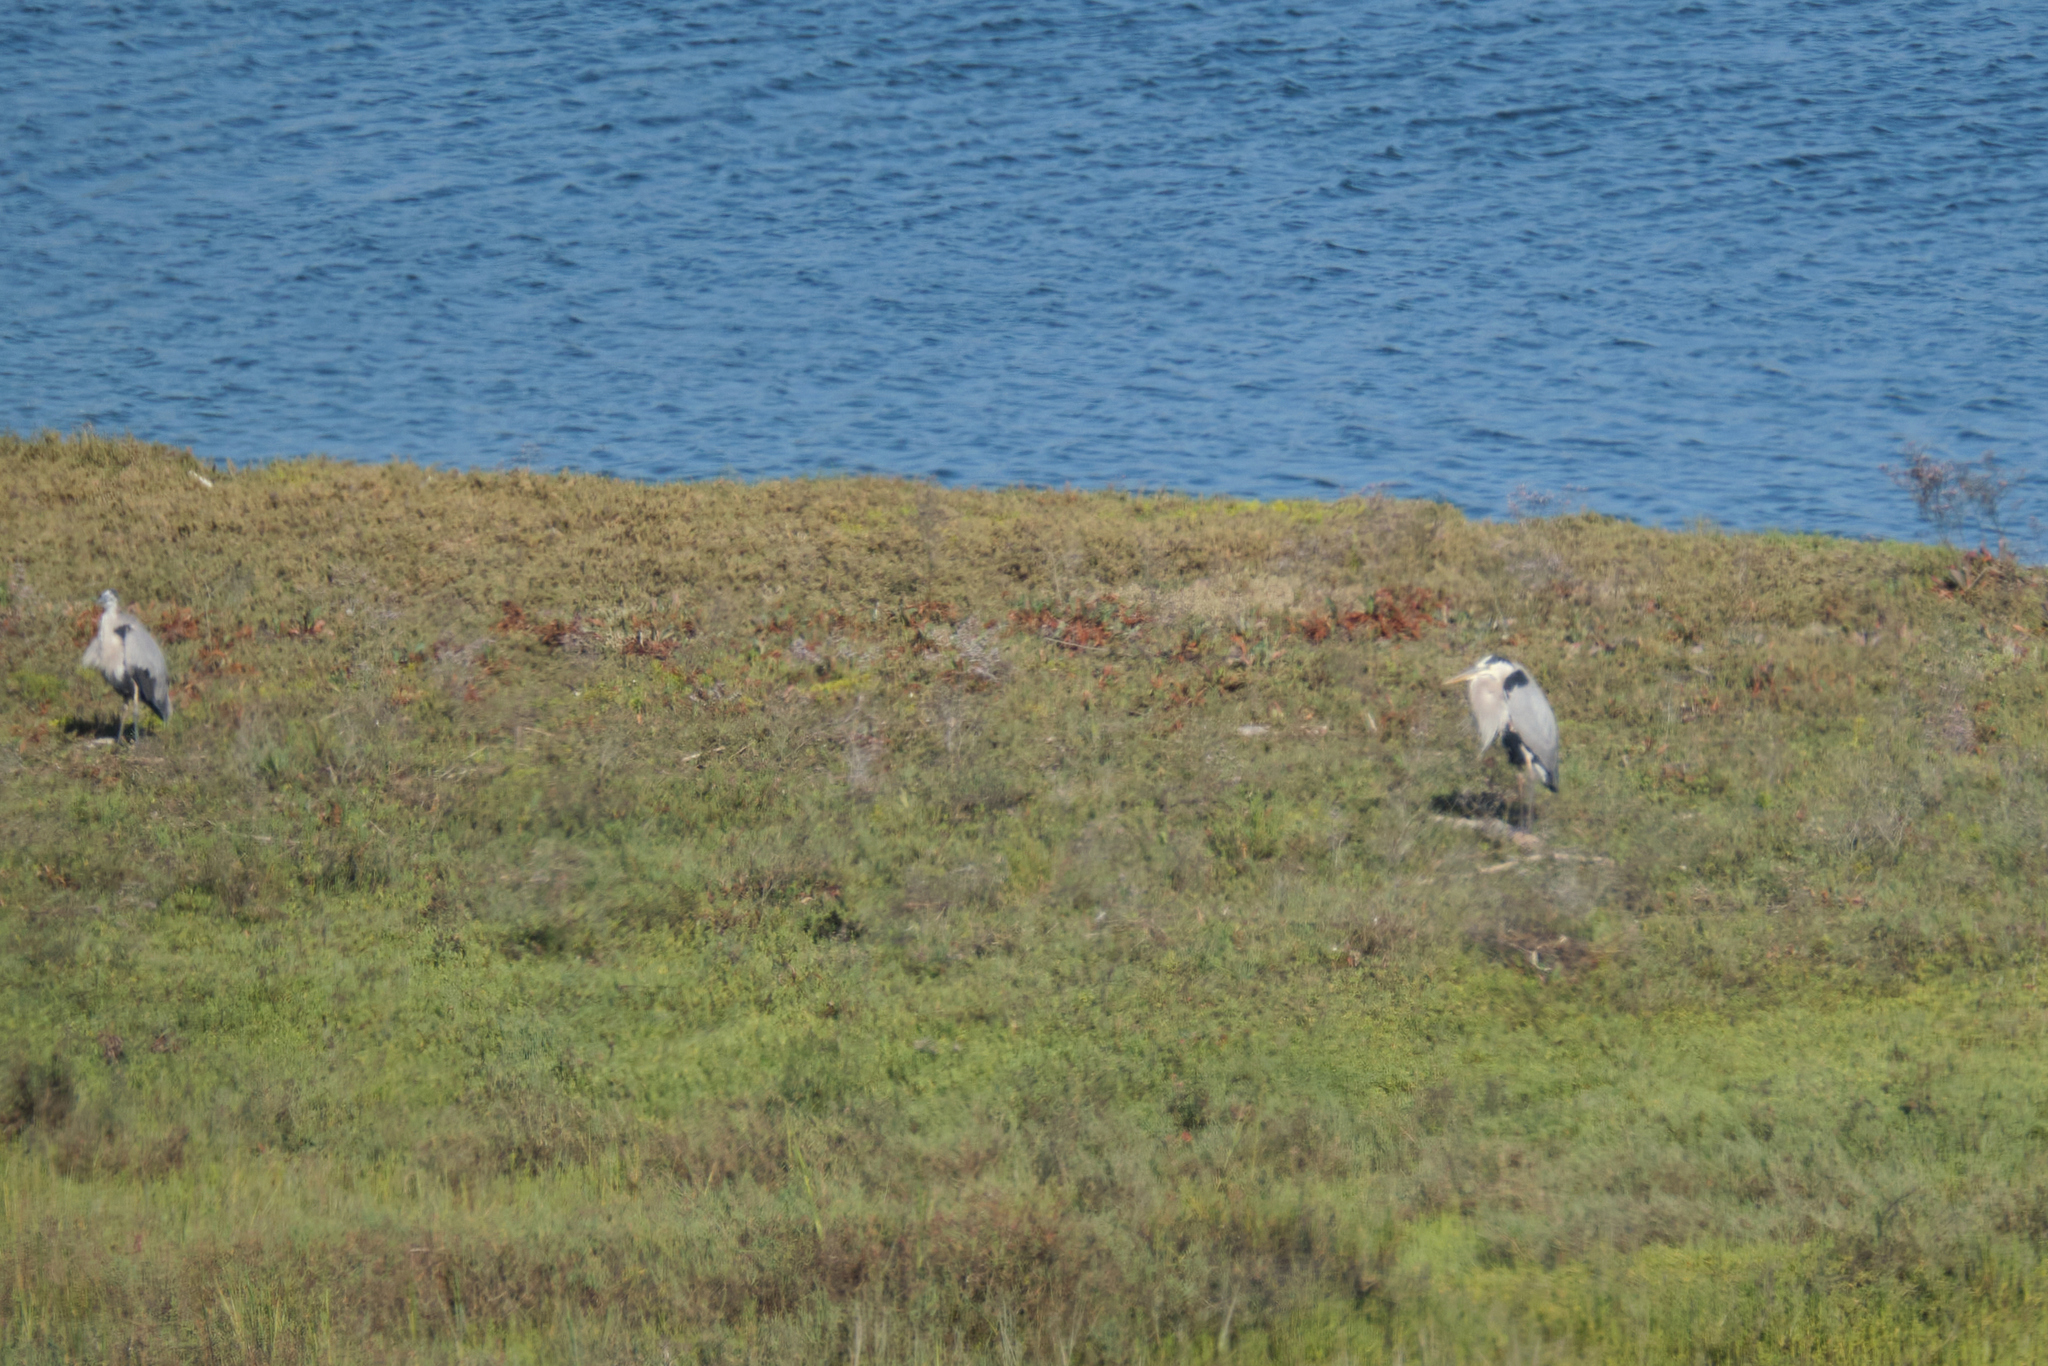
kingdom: Animalia
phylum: Chordata
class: Aves
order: Pelecaniformes
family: Ardeidae
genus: Ardea
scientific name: Ardea herodias
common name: Great blue heron
